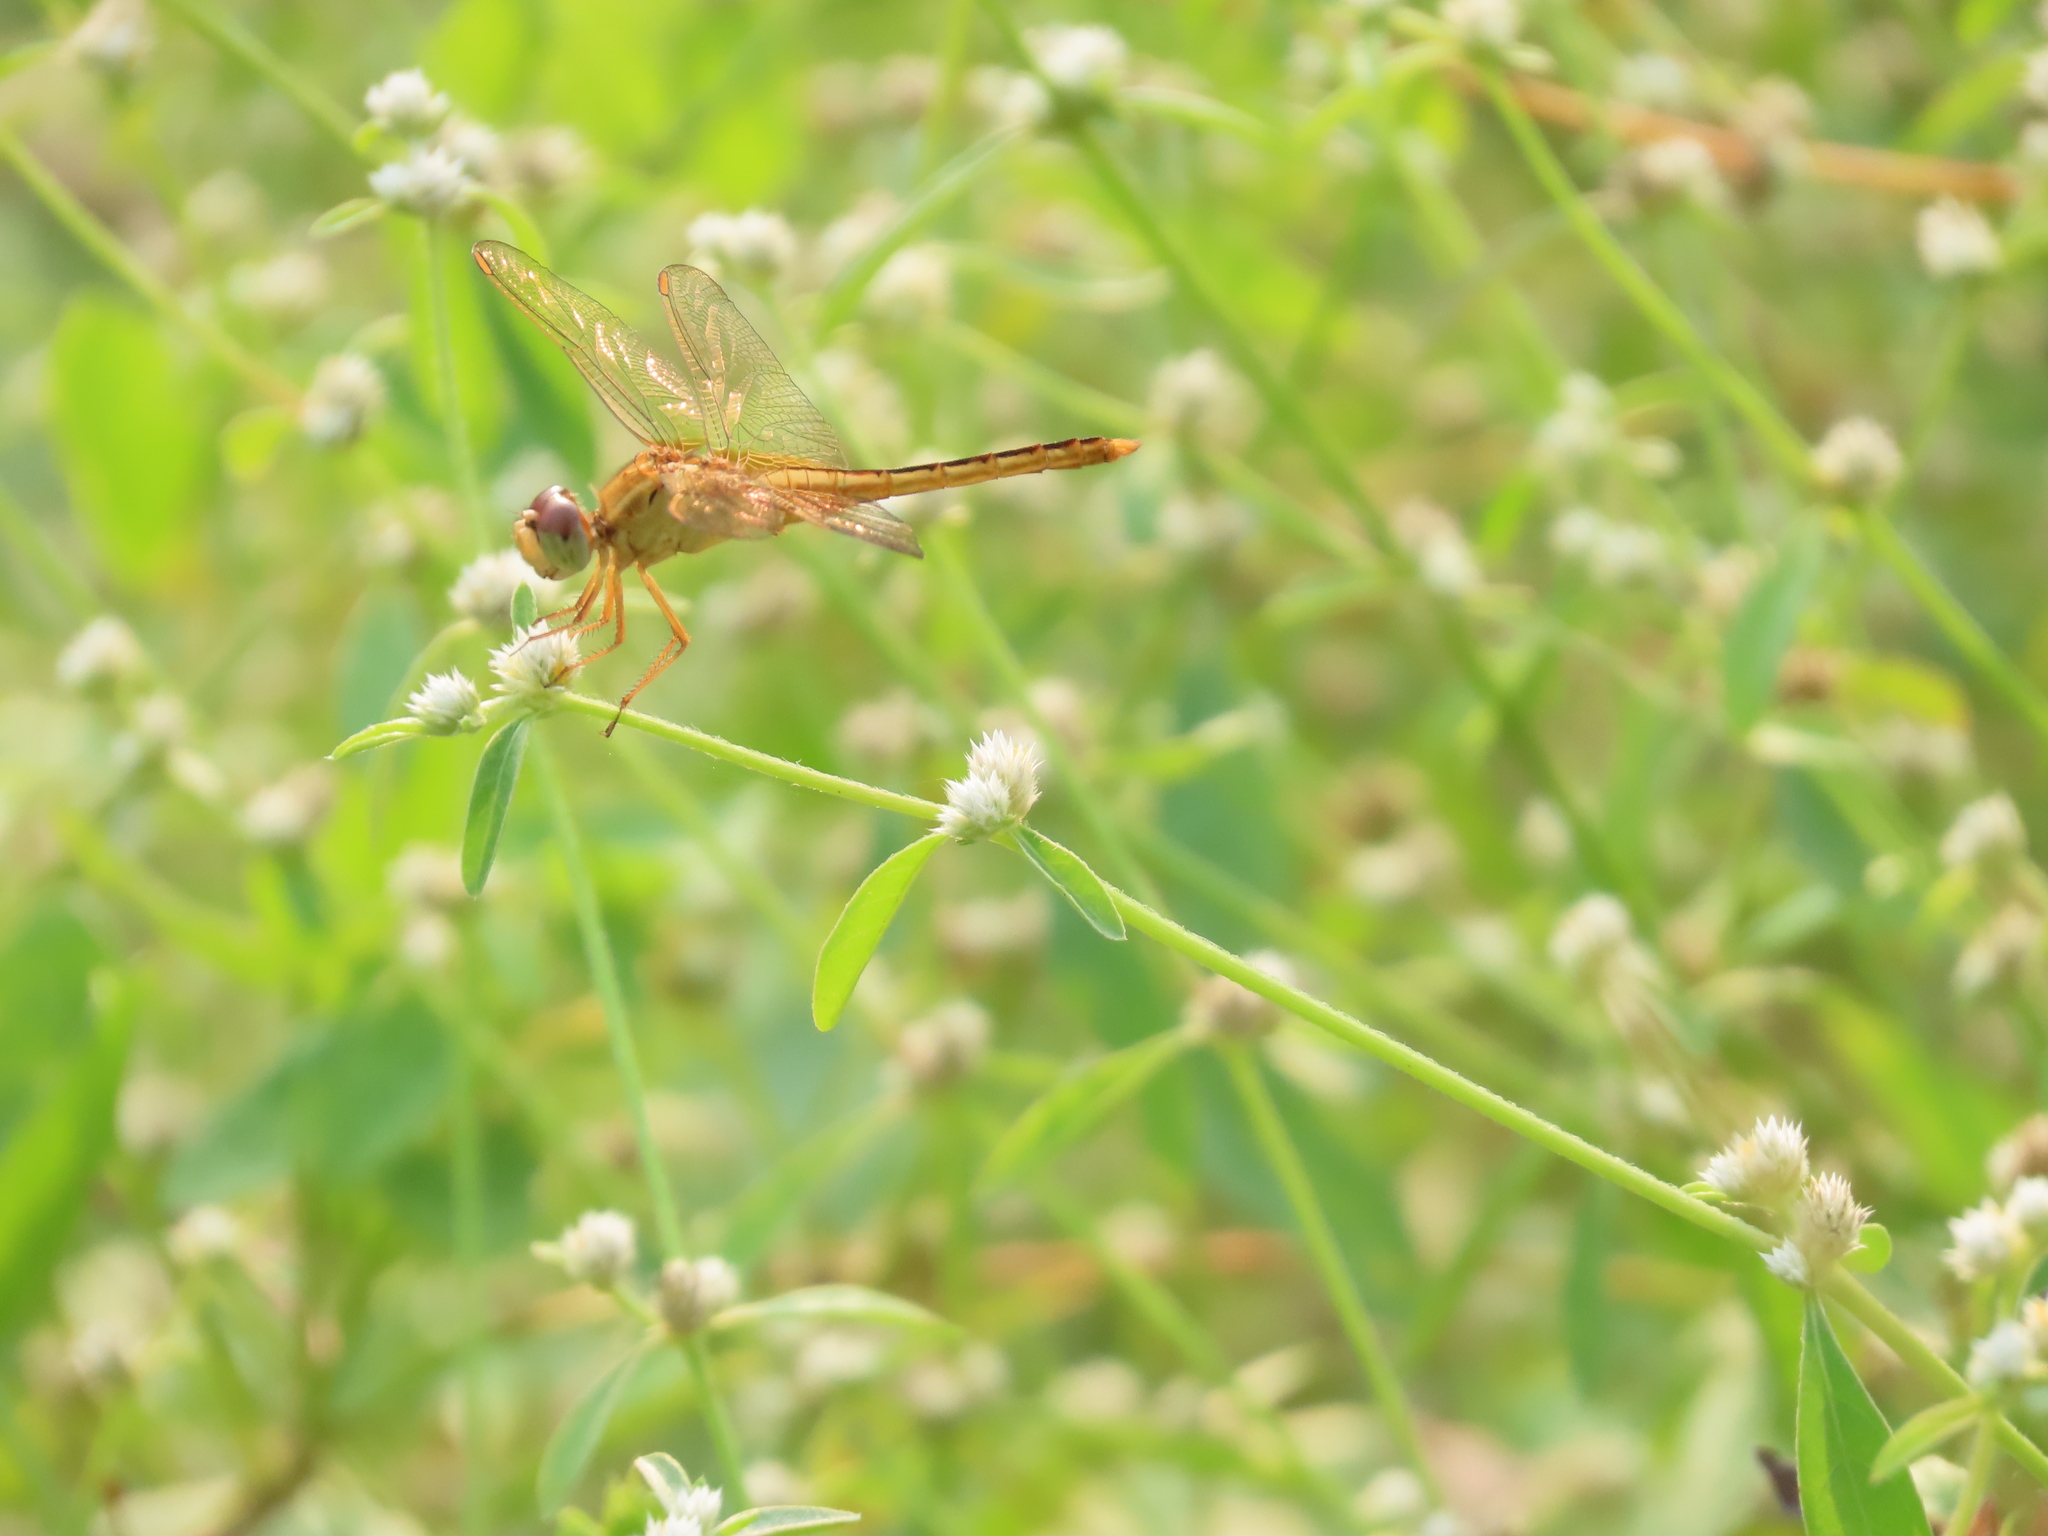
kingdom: Animalia
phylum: Arthropoda
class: Insecta
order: Odonata
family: Libellulidae
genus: Crocothemis
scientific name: Crocothemis servilia
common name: Scarlet skimmer
